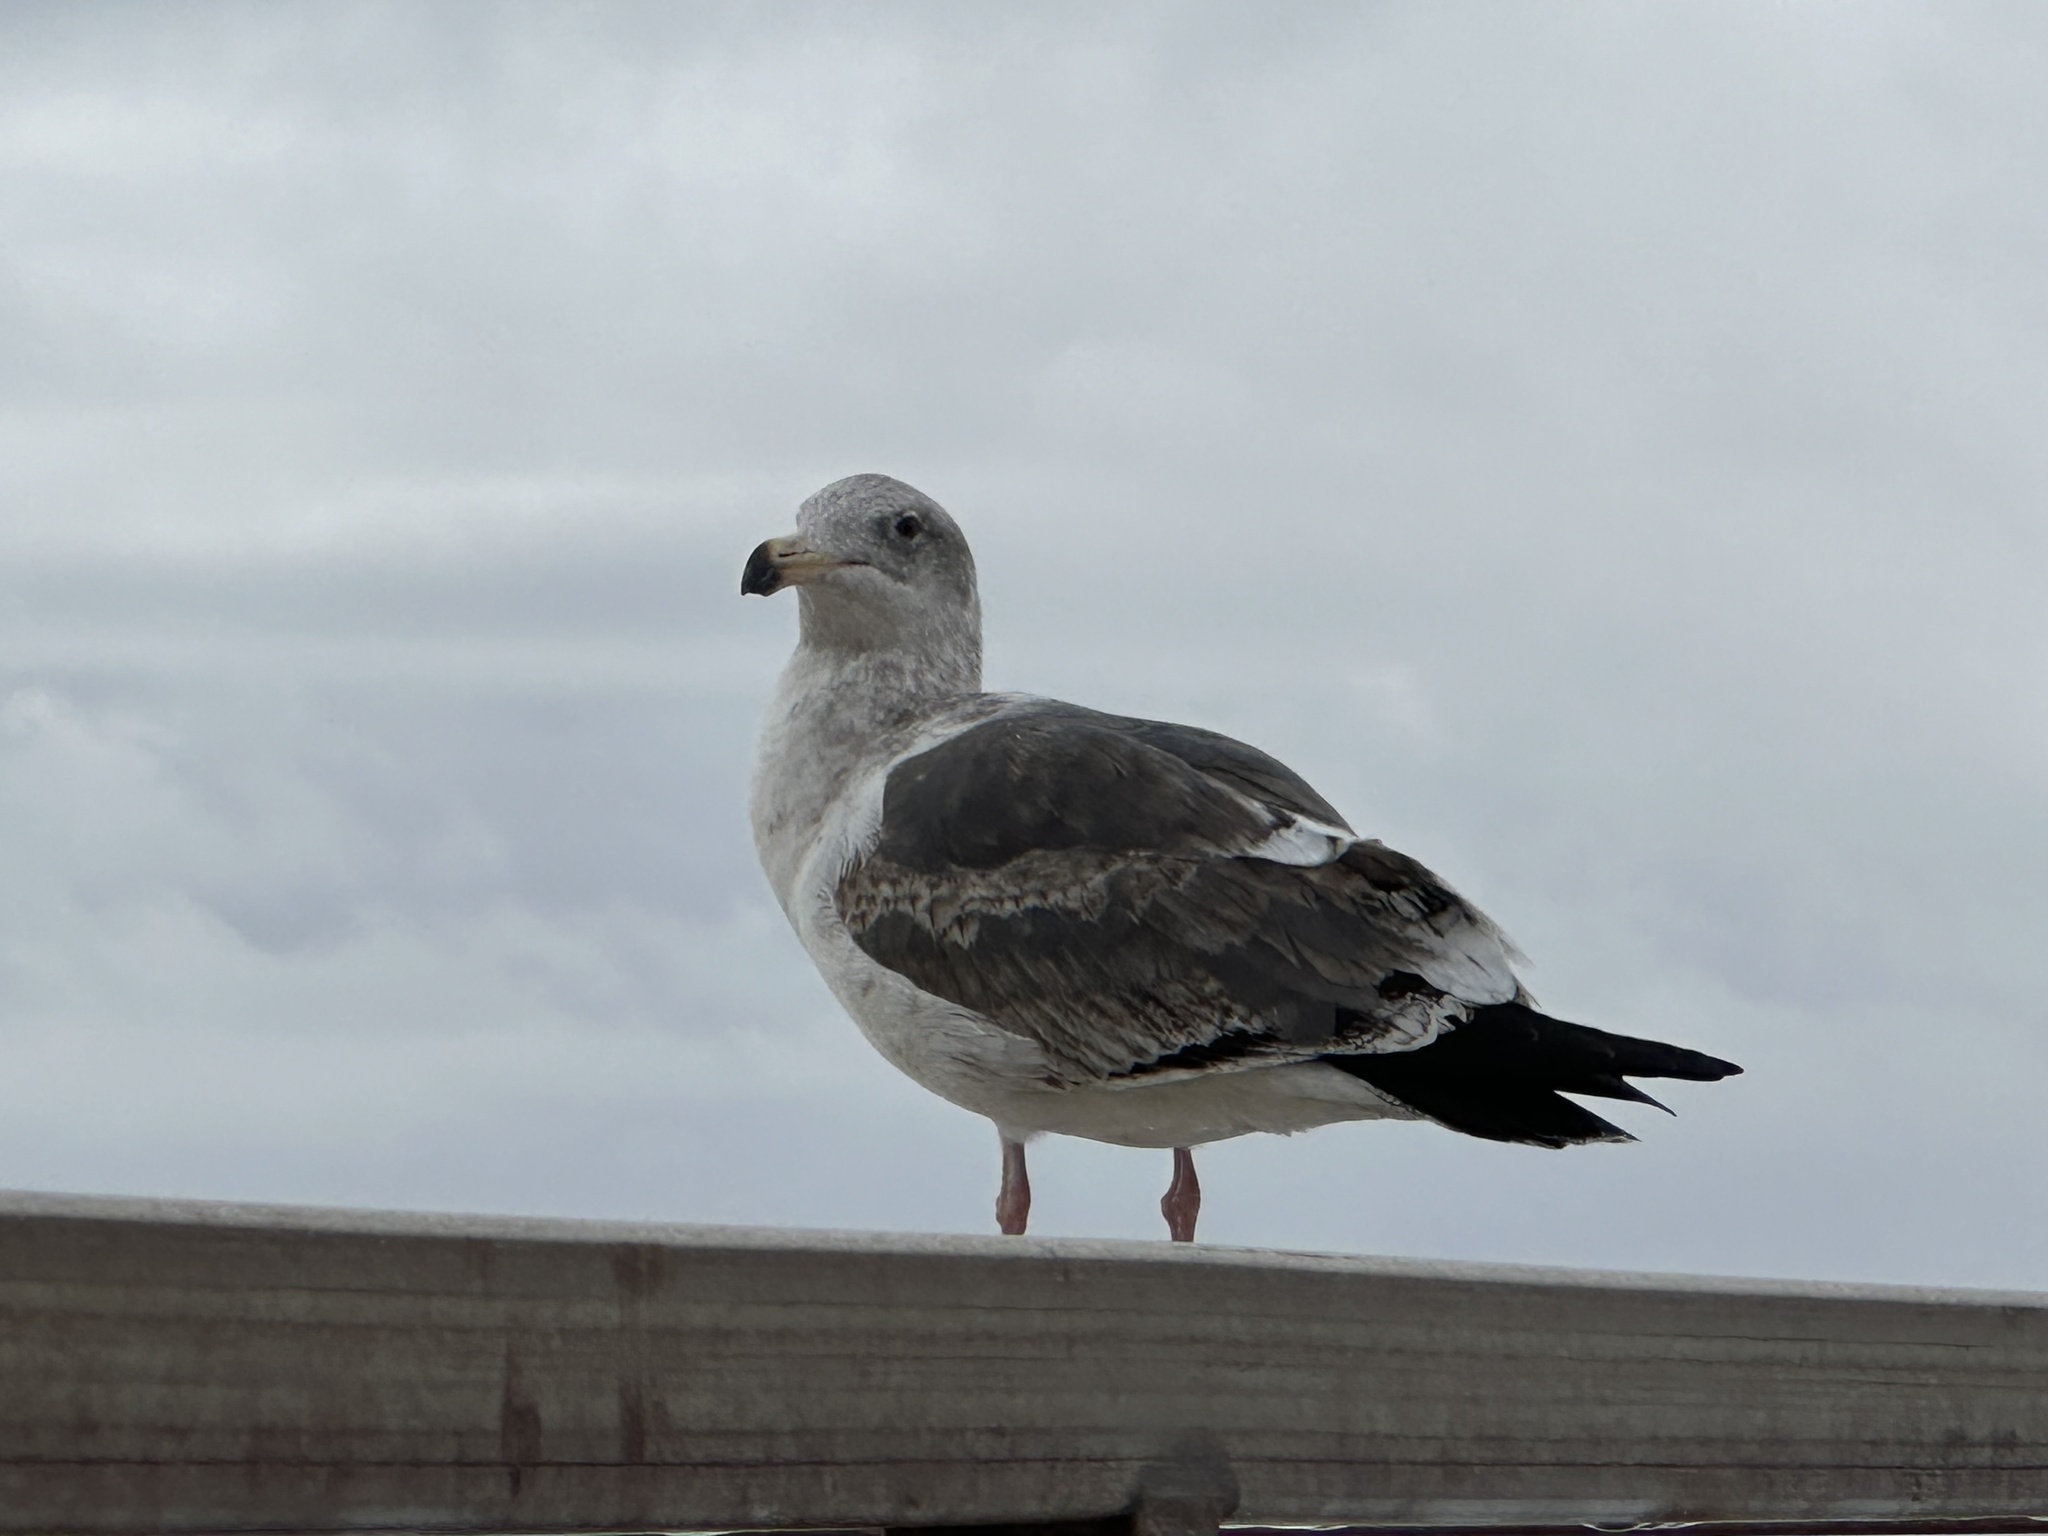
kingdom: Animalia
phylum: Chordata
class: Aves
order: Charadriiformes
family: Laridae
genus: Larus
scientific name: Larus occidentalis
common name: Western gull
